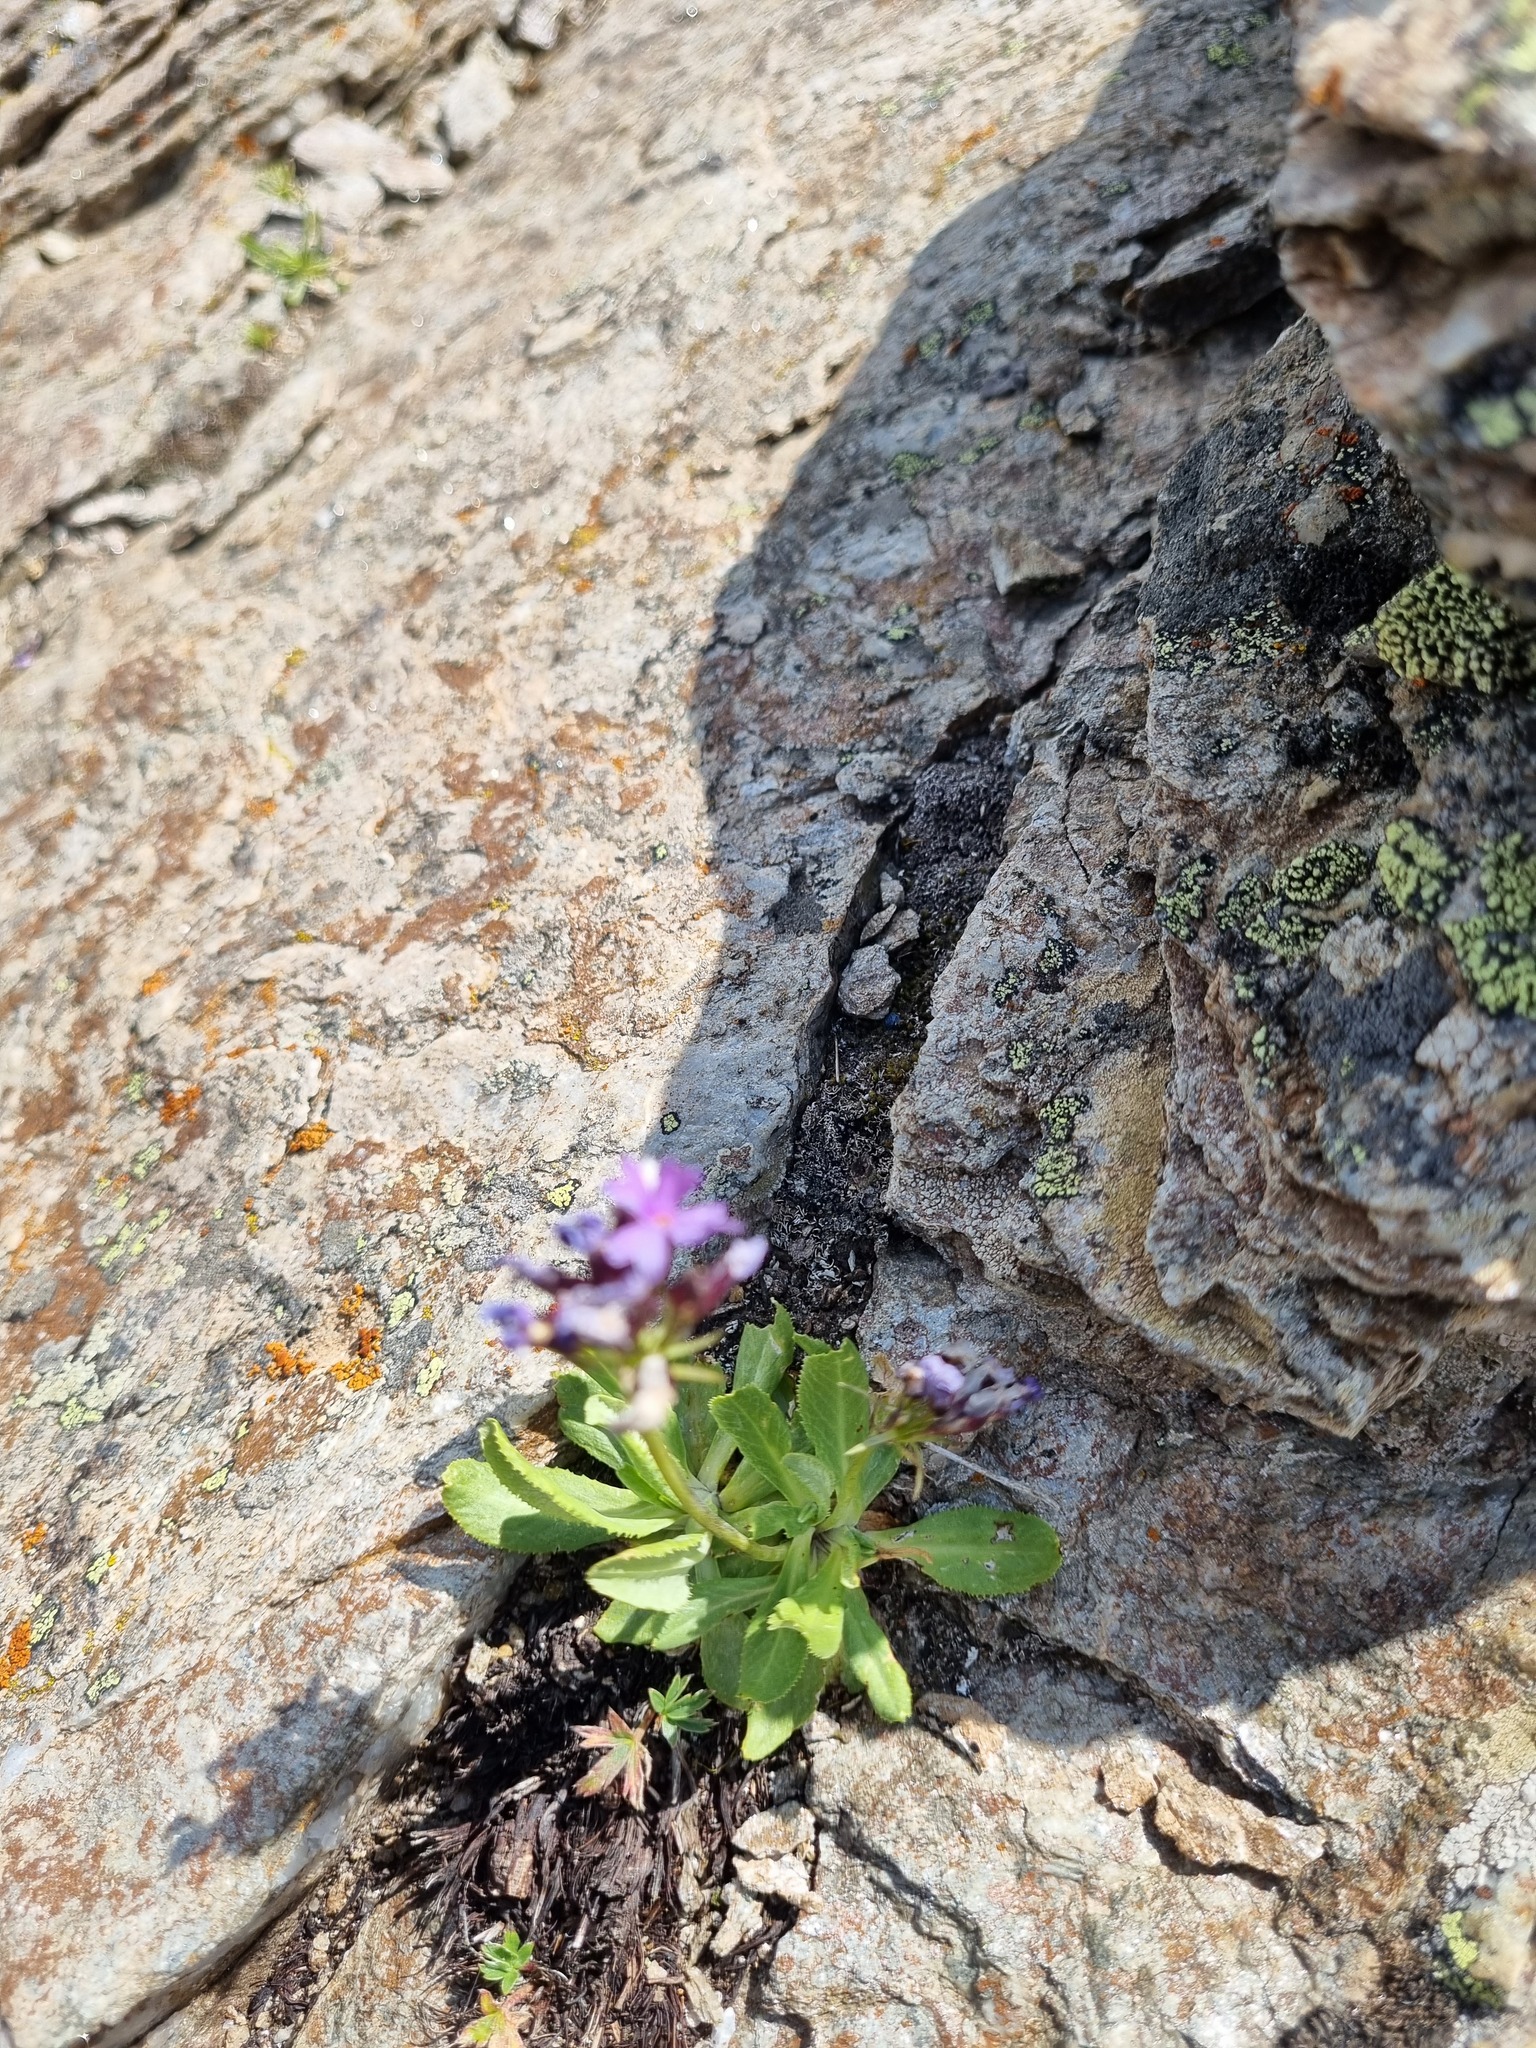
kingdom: Plantae
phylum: Tracheophyta
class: Magnoliopsida
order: Ericales
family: Primulaceae
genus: Primula
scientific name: Primula algida
